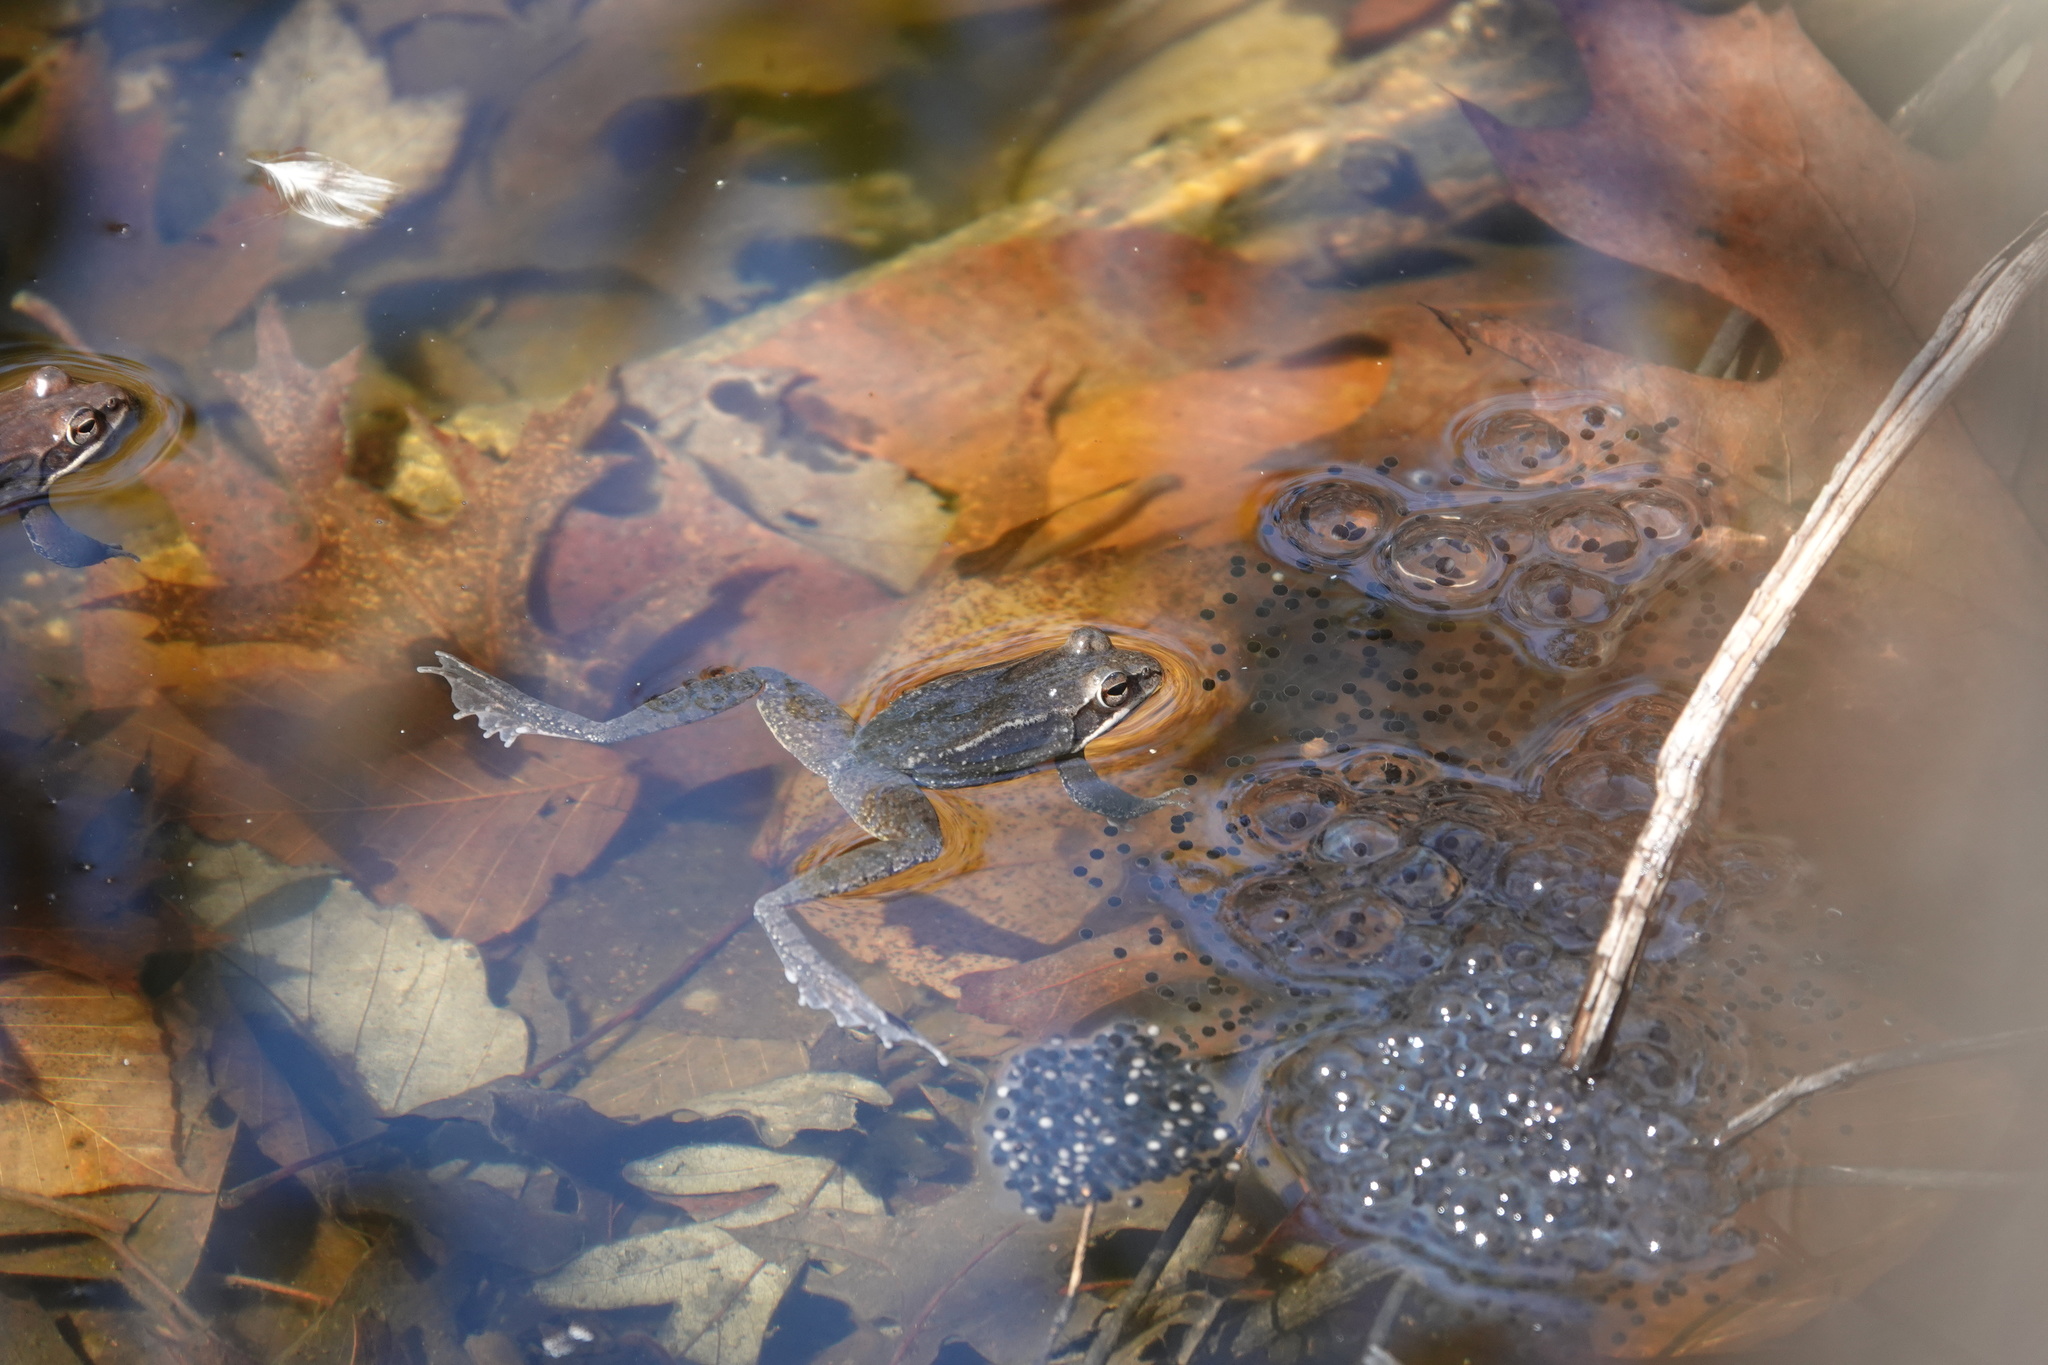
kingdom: Animalia
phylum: Chordata
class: Amphibia
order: Anura
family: Ranidae
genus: Lithobates
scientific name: Lithobates sylvaticus
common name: Wood frog
